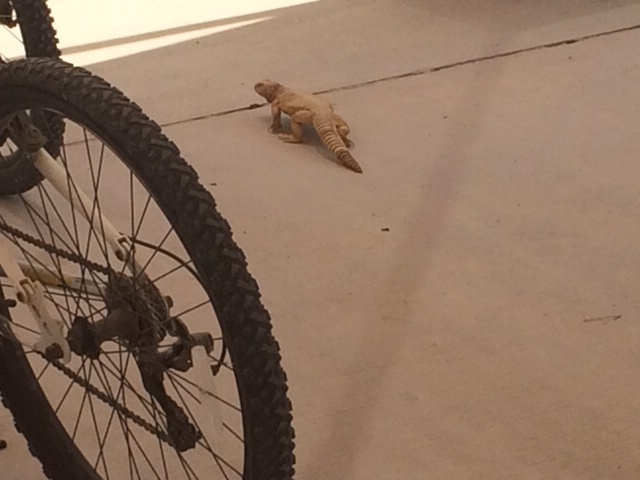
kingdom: Animalia
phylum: Chordata
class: Squamata
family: Agamidae
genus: Uromastyx
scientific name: Uromastyx aegyptia
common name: Egyptian mastigure
